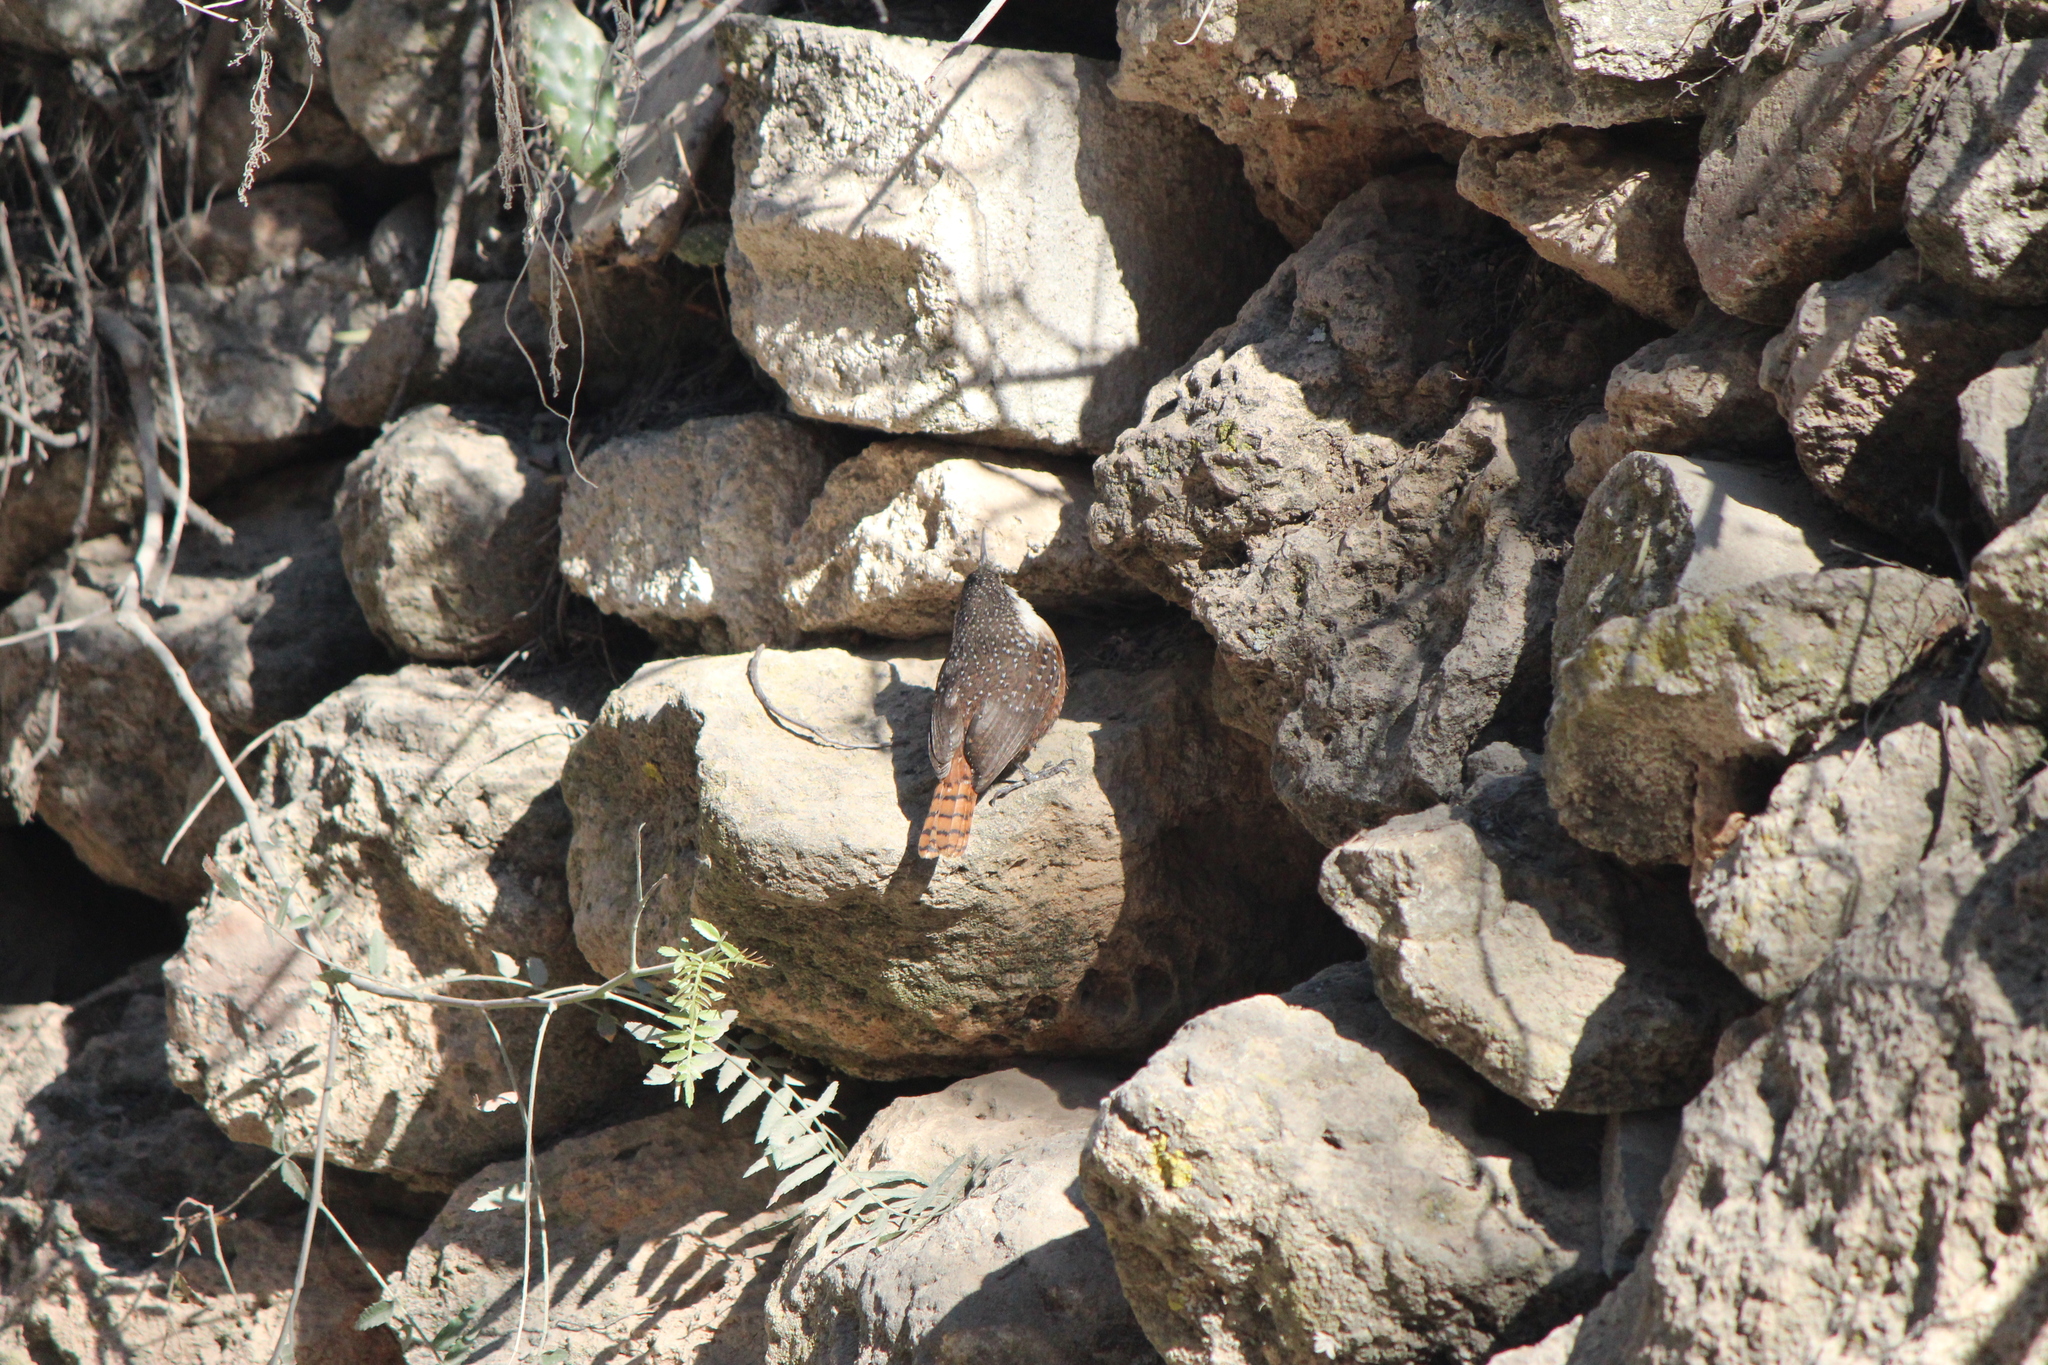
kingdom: Animalia
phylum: Chordata
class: Aves
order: Passeriformes
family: Troglodytidae
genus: Catherpes
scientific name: Catherpes mexicanus
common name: Canyon wren
